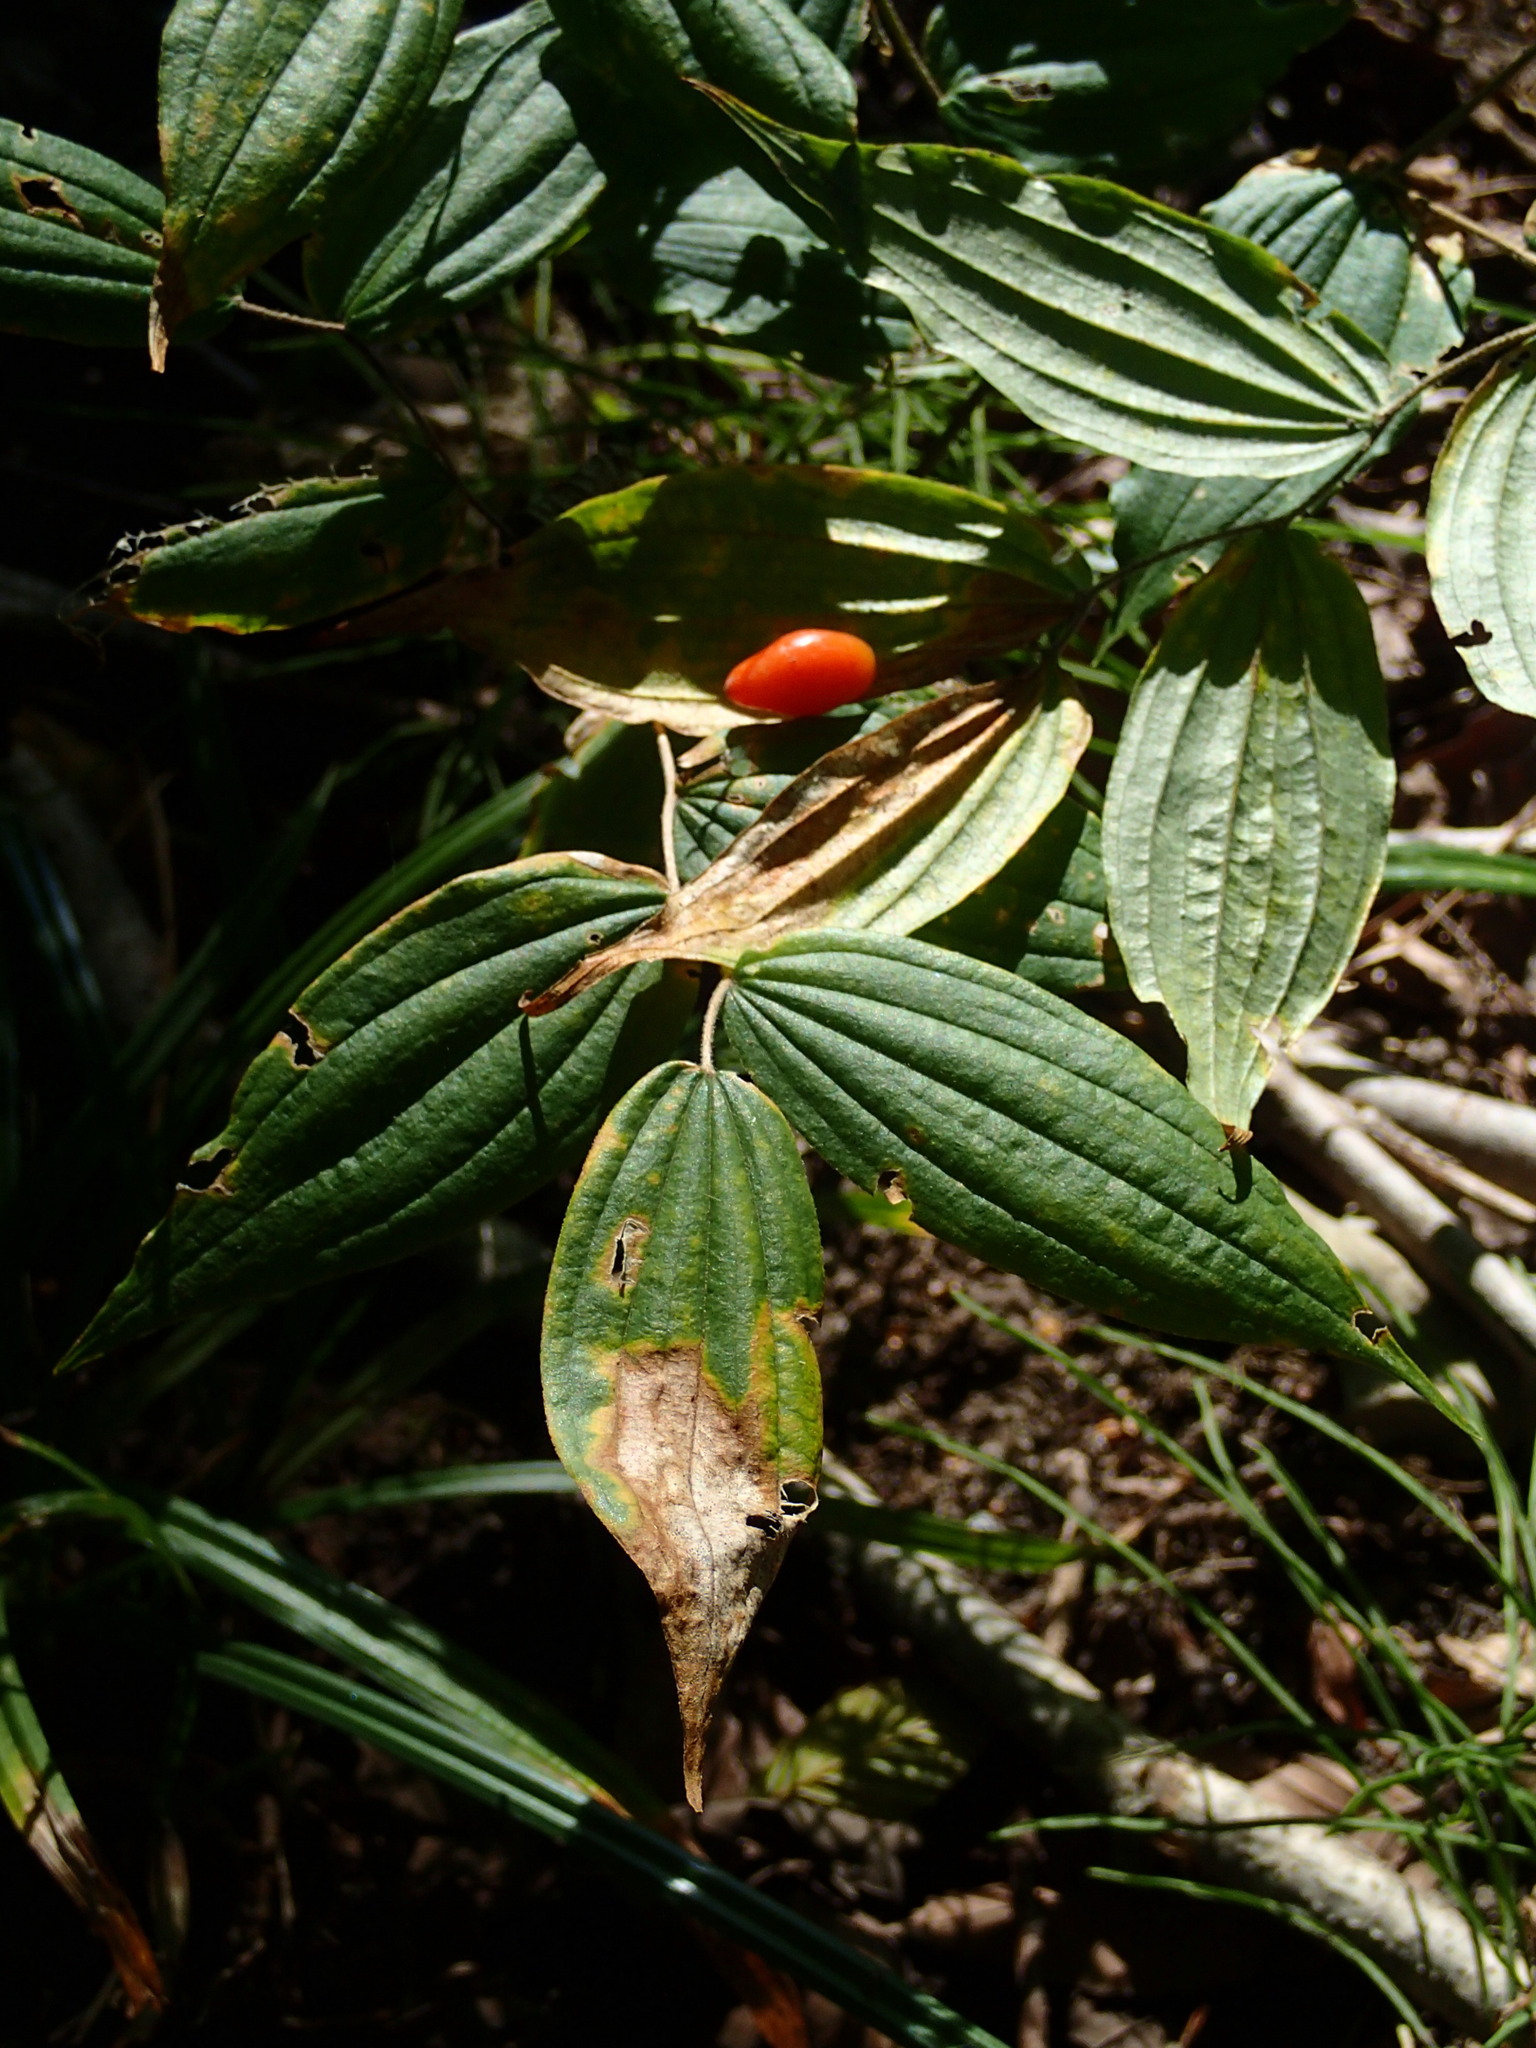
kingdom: Plantae
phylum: Tracheophyta
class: Liliopsida
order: Liliales
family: Liliaceae
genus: Prosartes
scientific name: Prosartes lanuginosa
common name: Hairy mandarin
